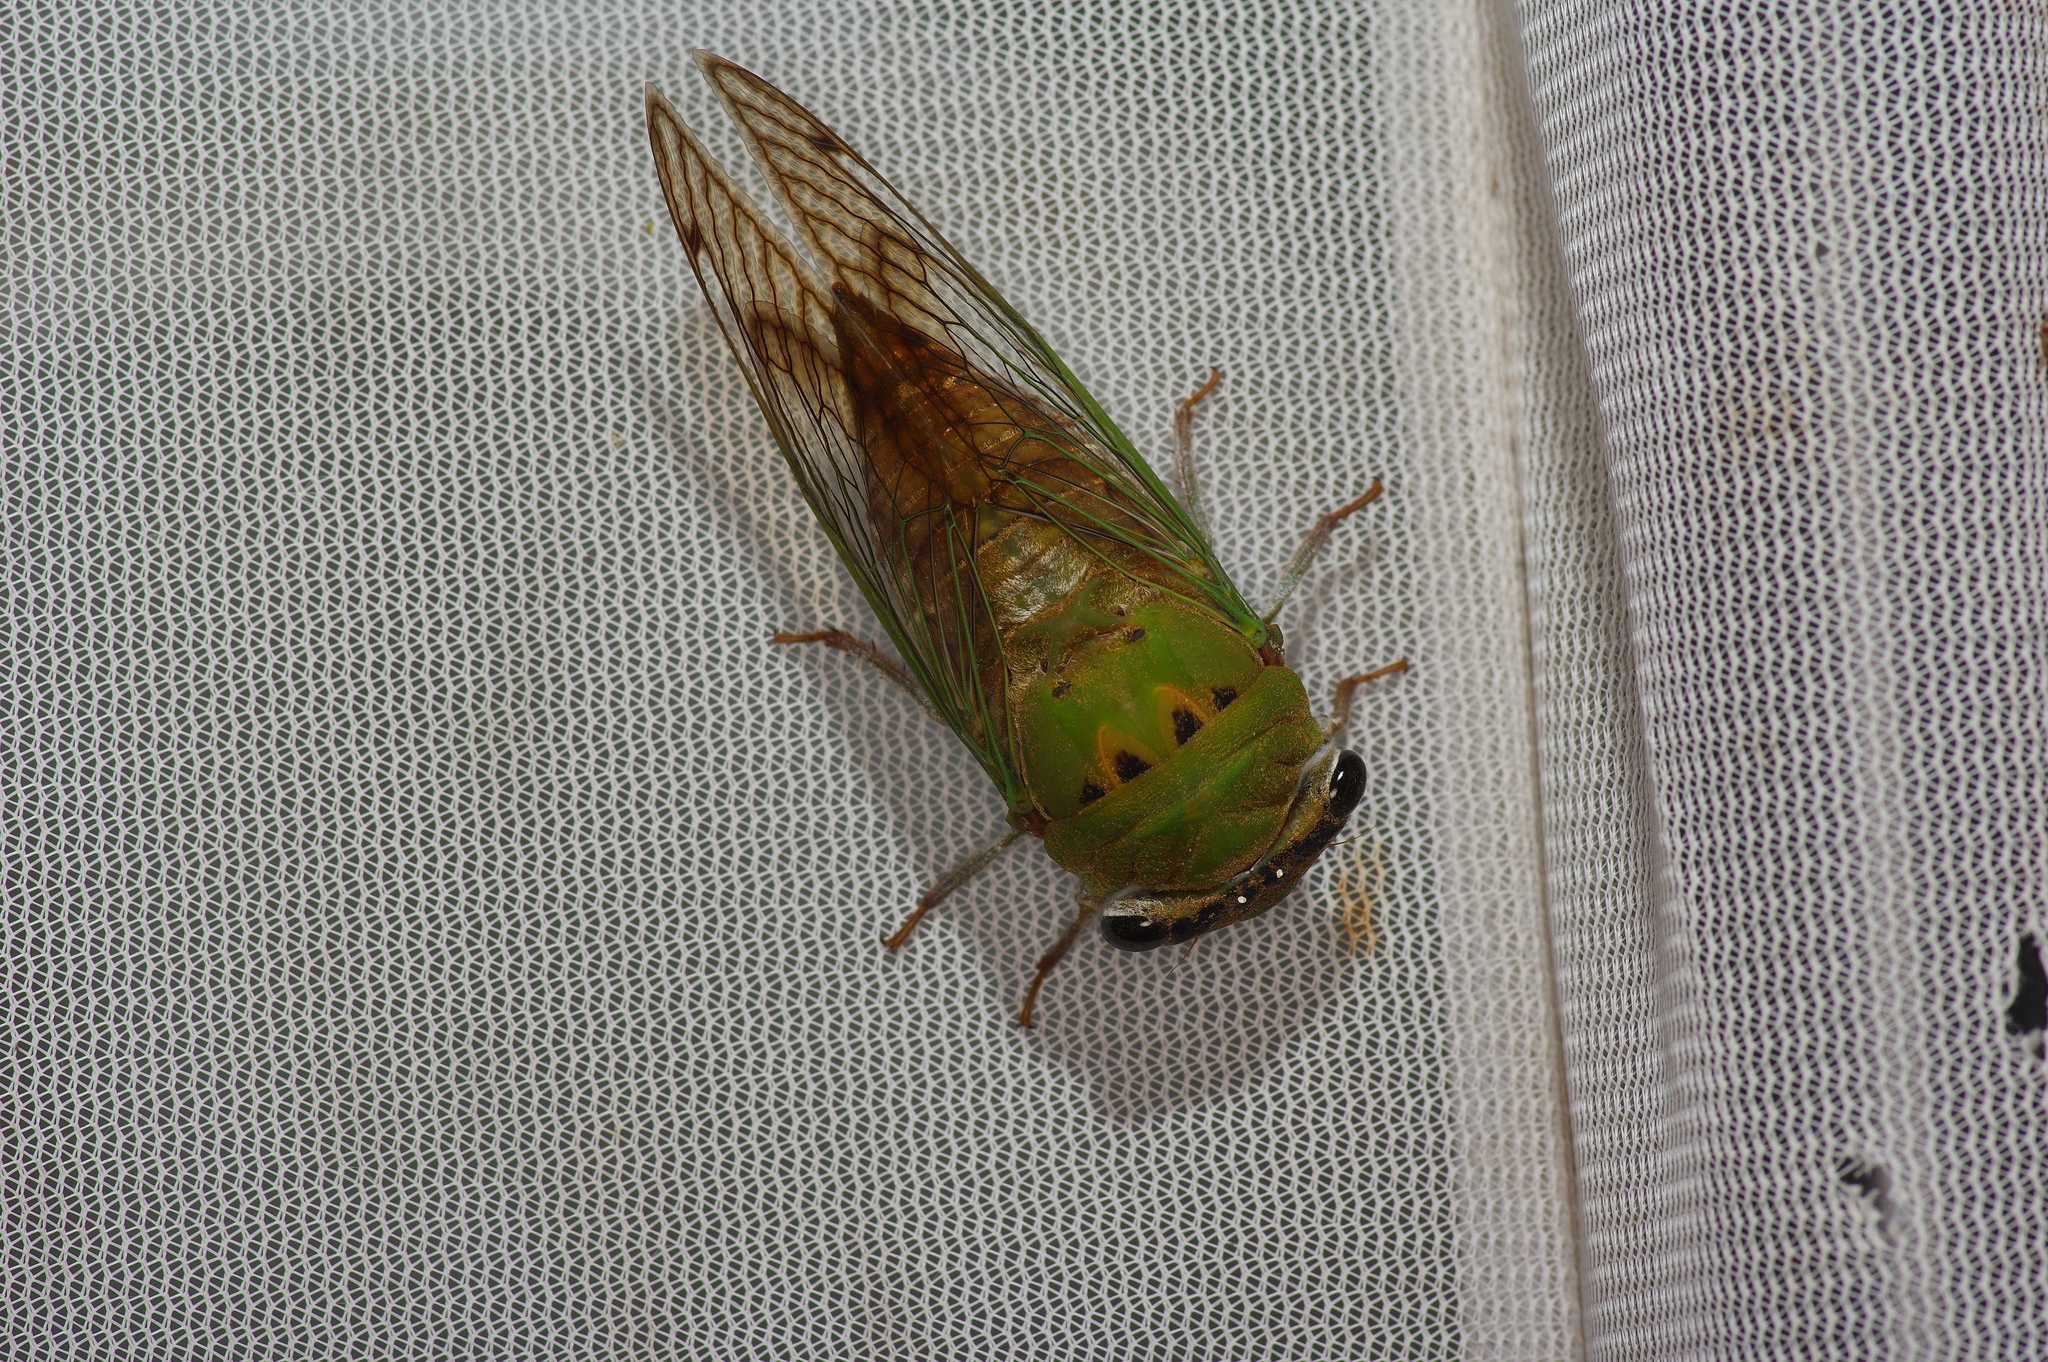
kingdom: Animalia
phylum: Arthropoda
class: Insecta
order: Hemiptera
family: Cicadidae
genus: Neotibicen
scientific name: Neotibicen superbus
